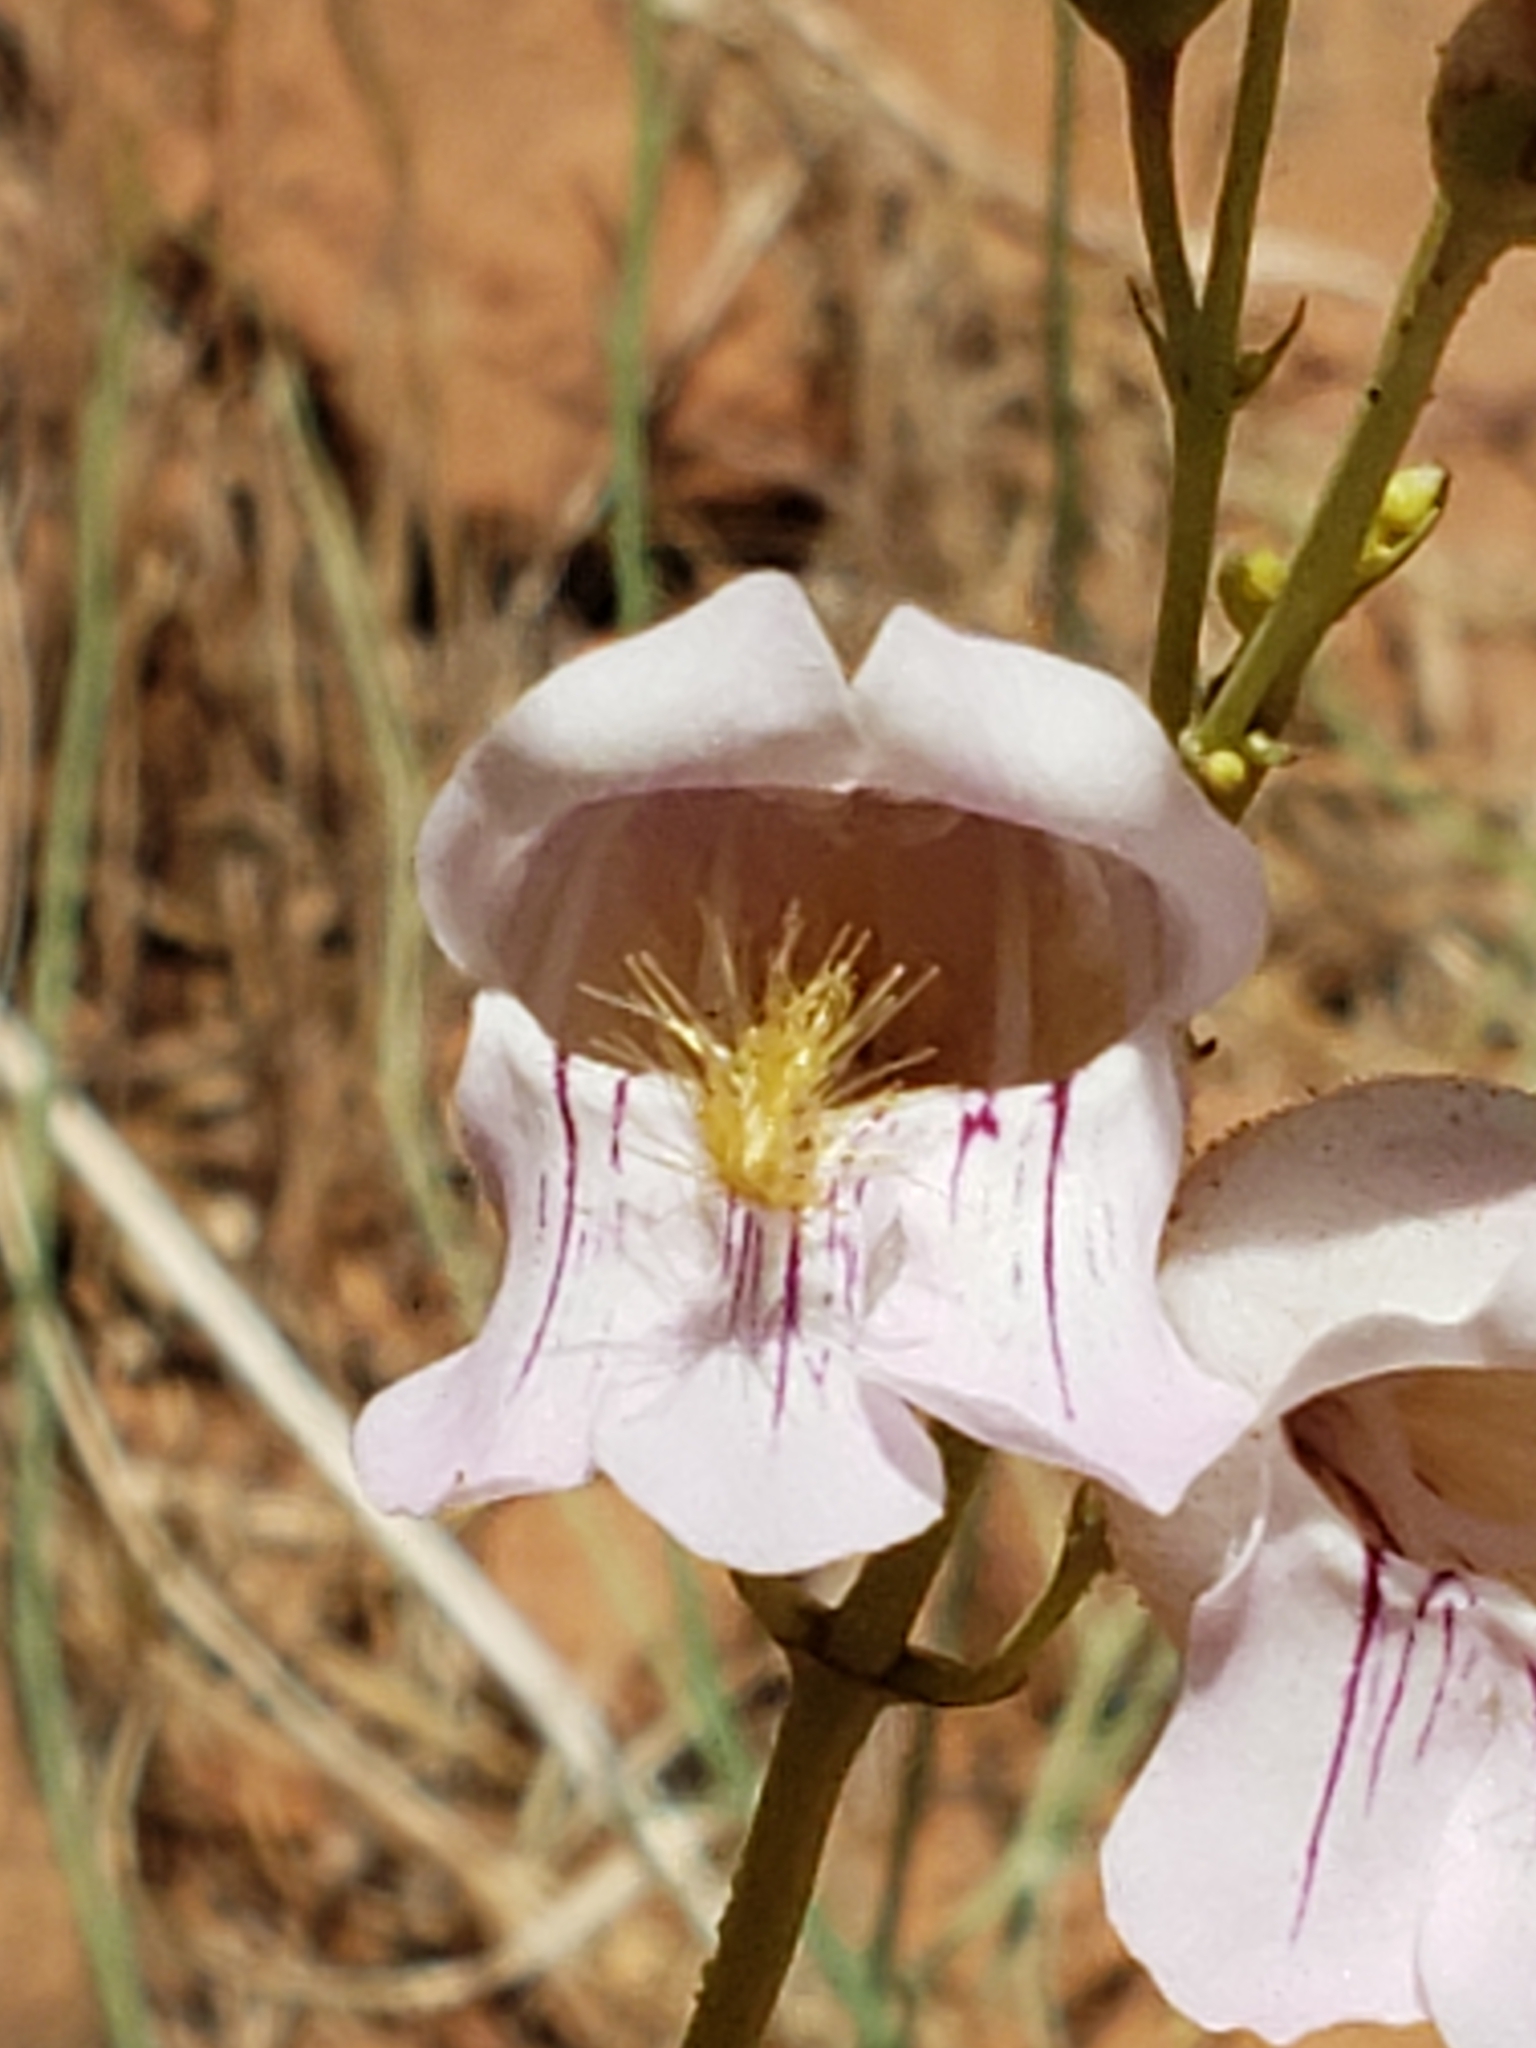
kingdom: Plantae
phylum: Tracheophyta
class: Magnoliopsida
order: Lamiales
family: Plantaginaceae
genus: Penstemon
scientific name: Penstemon palmeri
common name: Palmer penstemon
